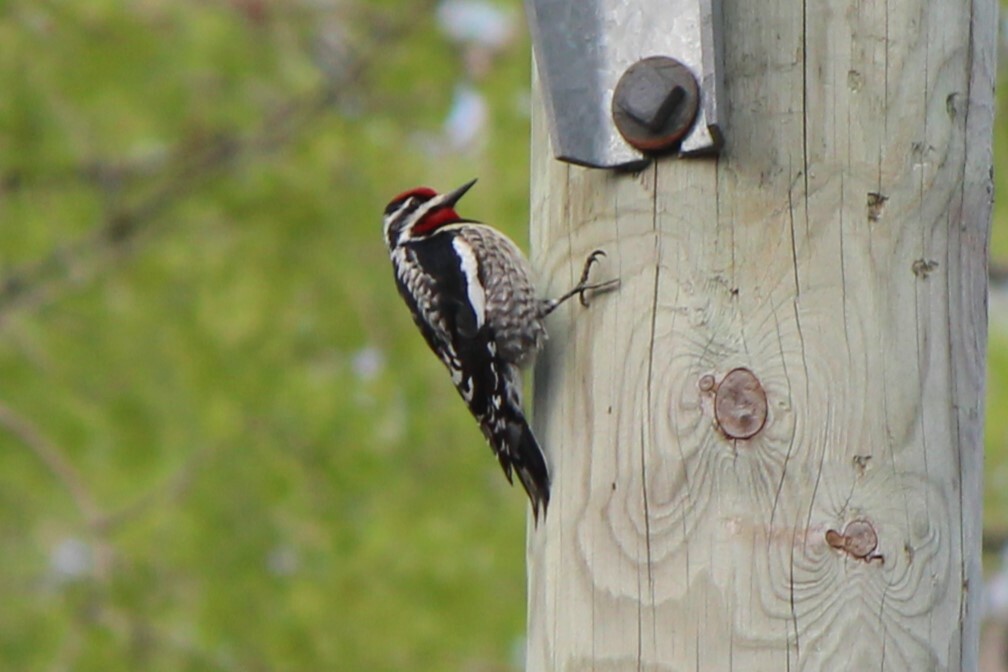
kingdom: Animalia
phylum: Chordata
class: Aves
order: Piciformes
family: Picidae
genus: Sphyrapicus
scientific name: Sphyrapicus varius
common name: Yellow-bellied sapsucker
